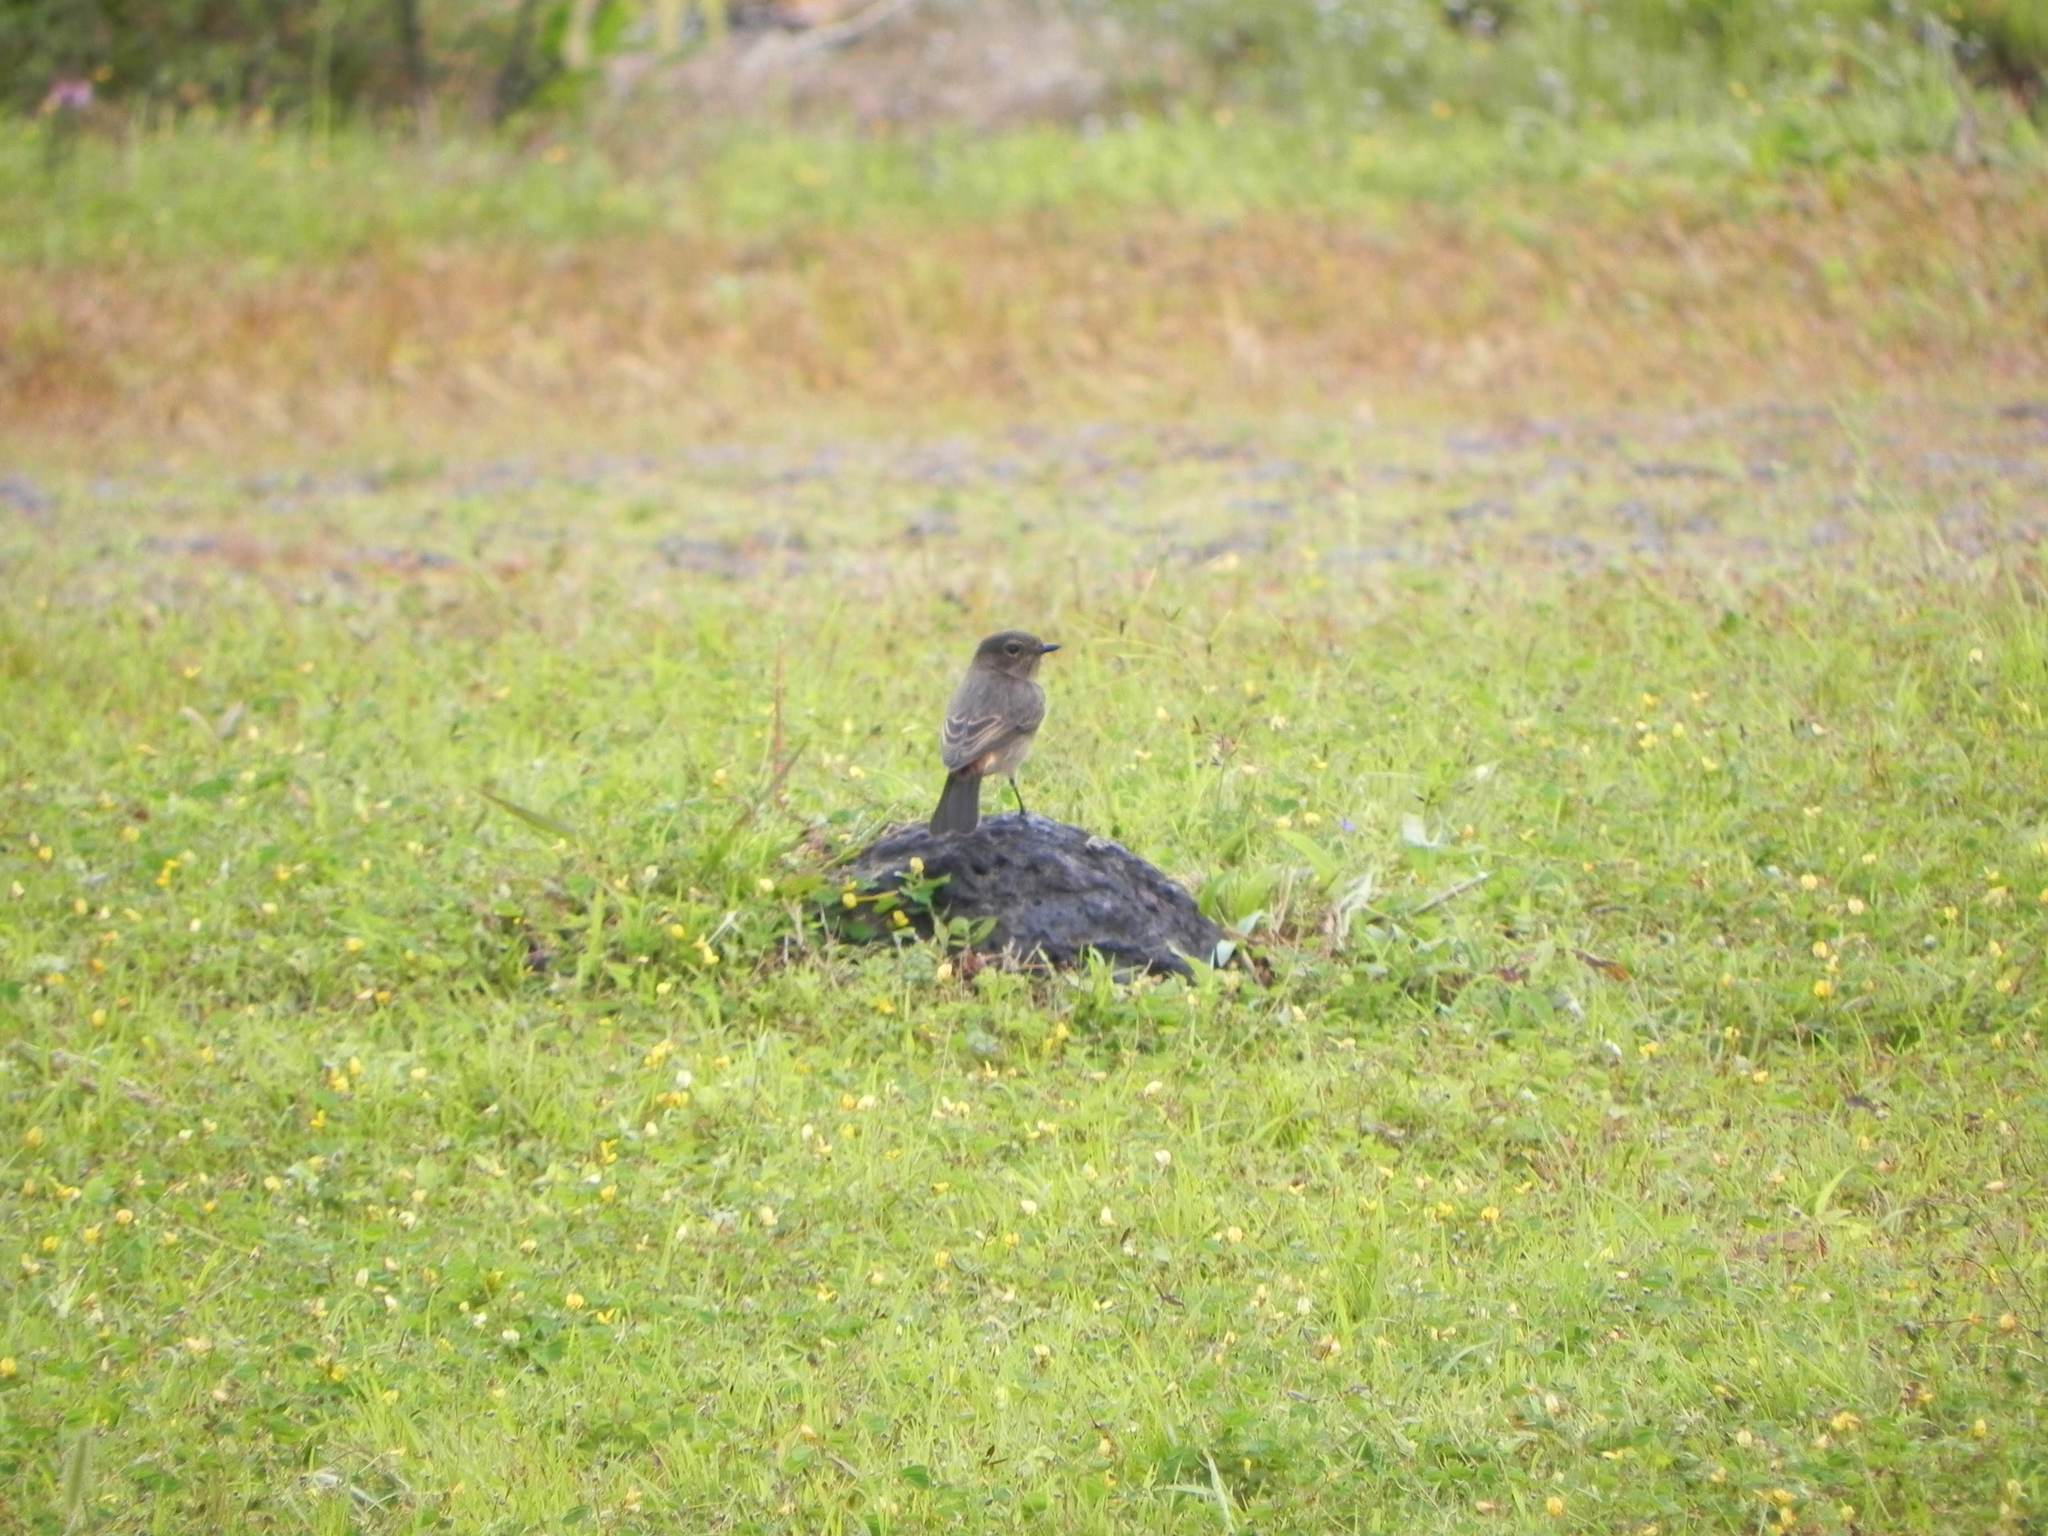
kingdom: Animalia
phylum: Chordata
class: Aves
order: Passeriformes
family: Muscicapidae
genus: Saxicola
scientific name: Saxicola caprata
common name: Pied bush chat
